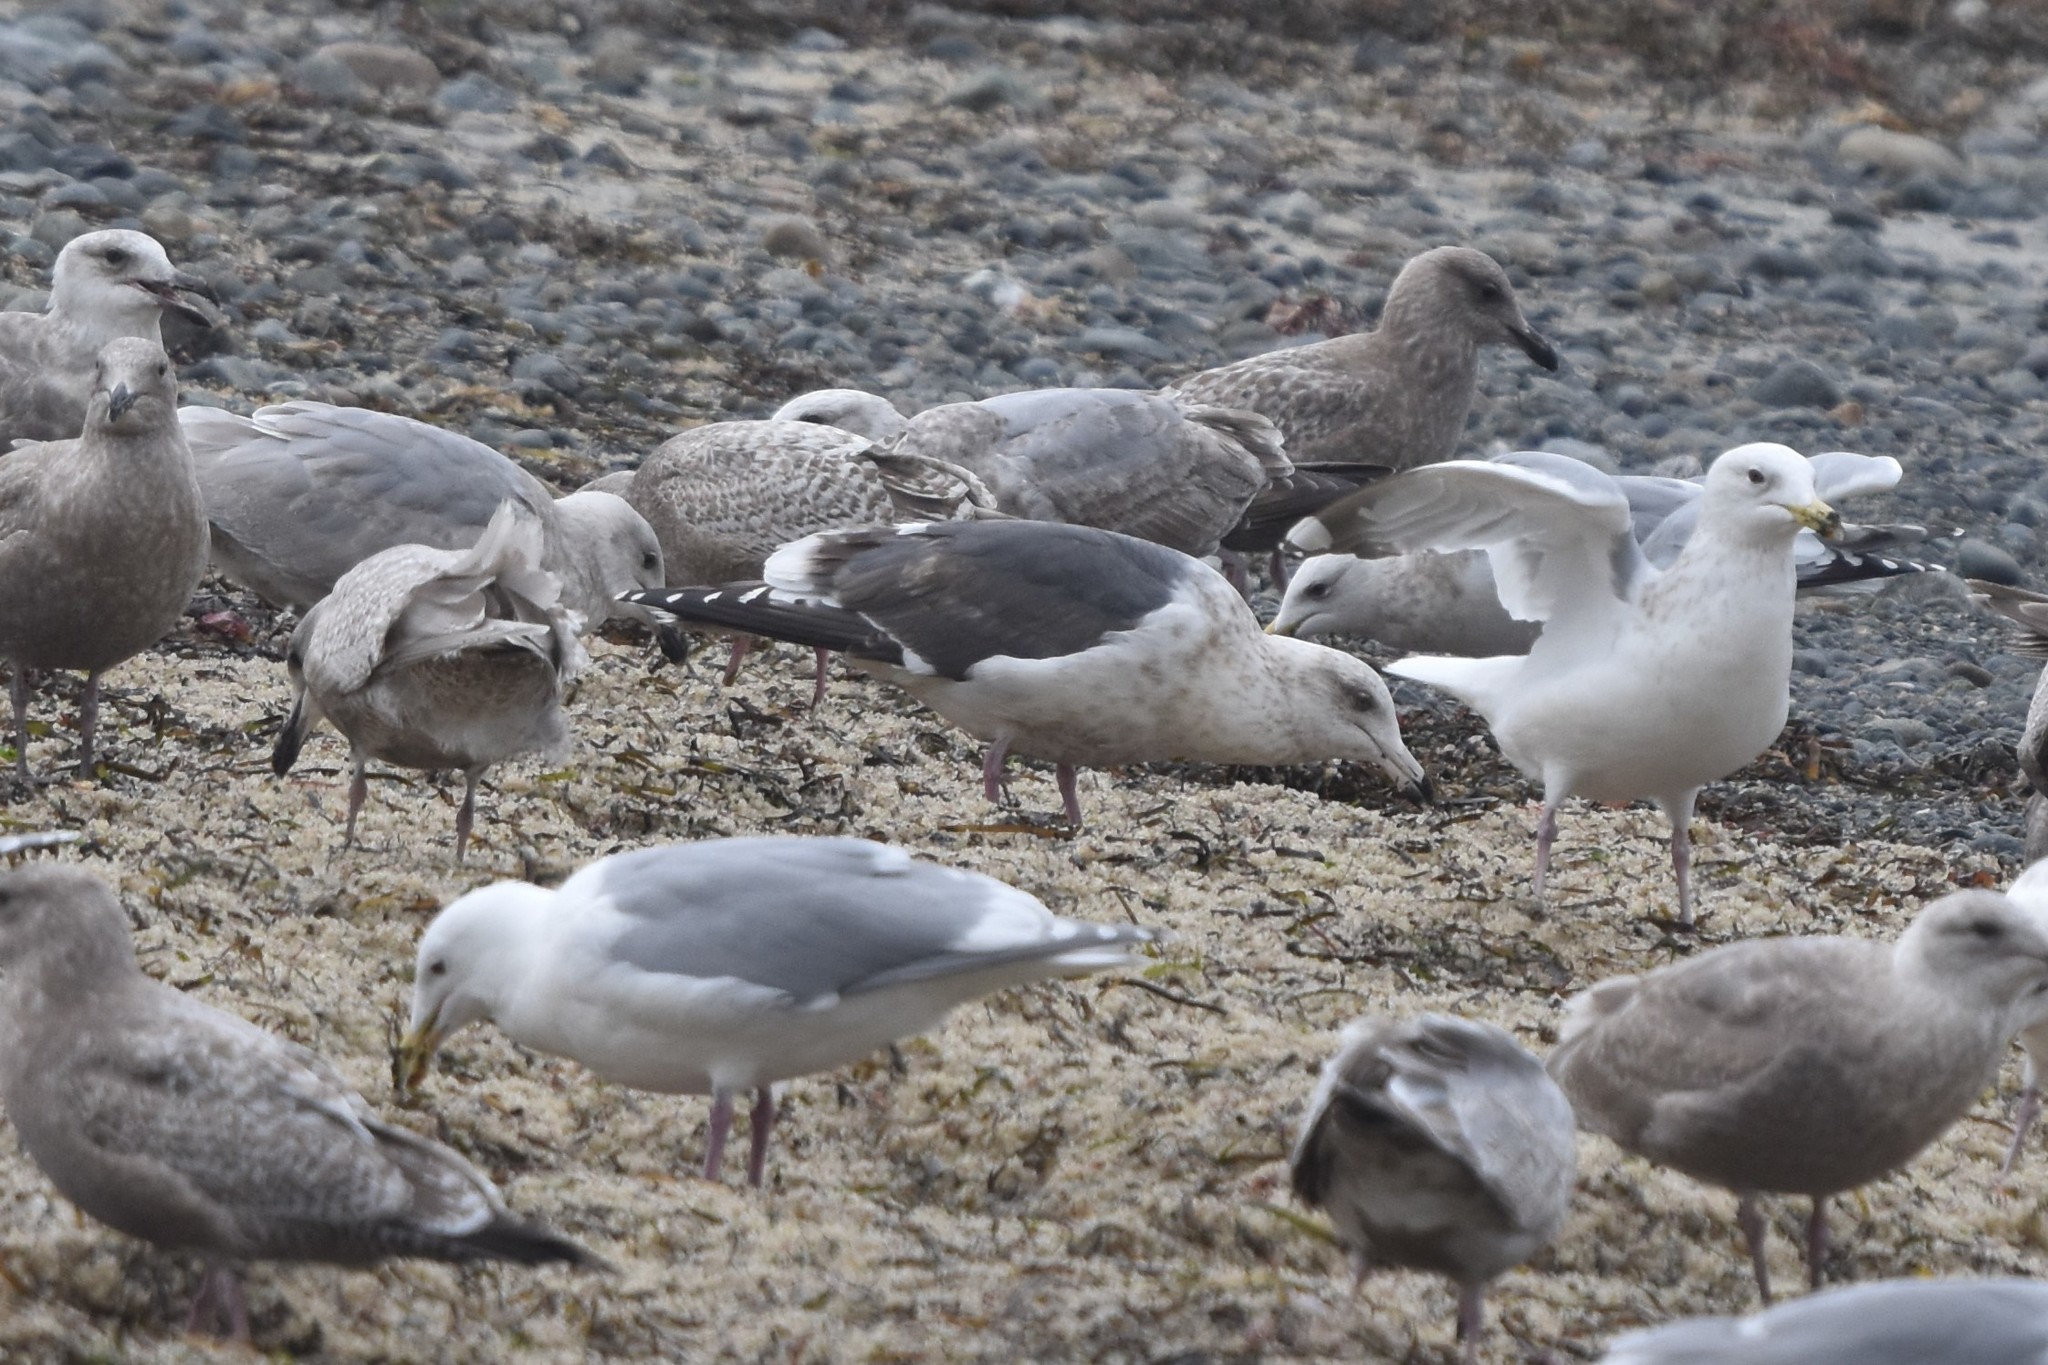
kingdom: Animalia
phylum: Chordata
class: Aves
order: Charadriiformes
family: Laridae
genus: Larus
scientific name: Larus schistisagus
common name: Slaty-backed gull
